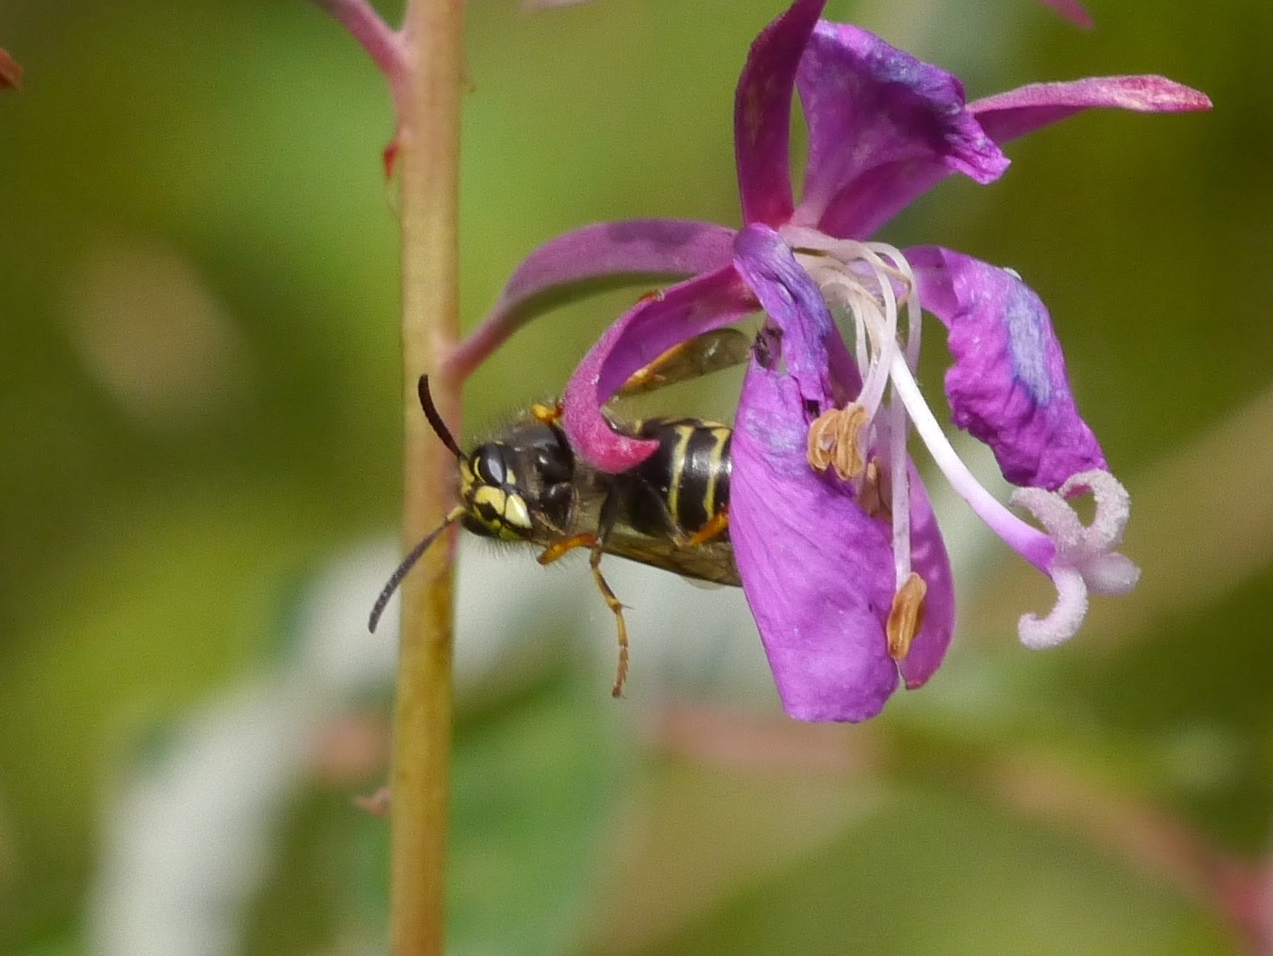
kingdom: Animalia
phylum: Arthropoda
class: Insecta
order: Hymenoptera
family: Vespidae
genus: Dolichovespula
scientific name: Dolichovespula alpicola
